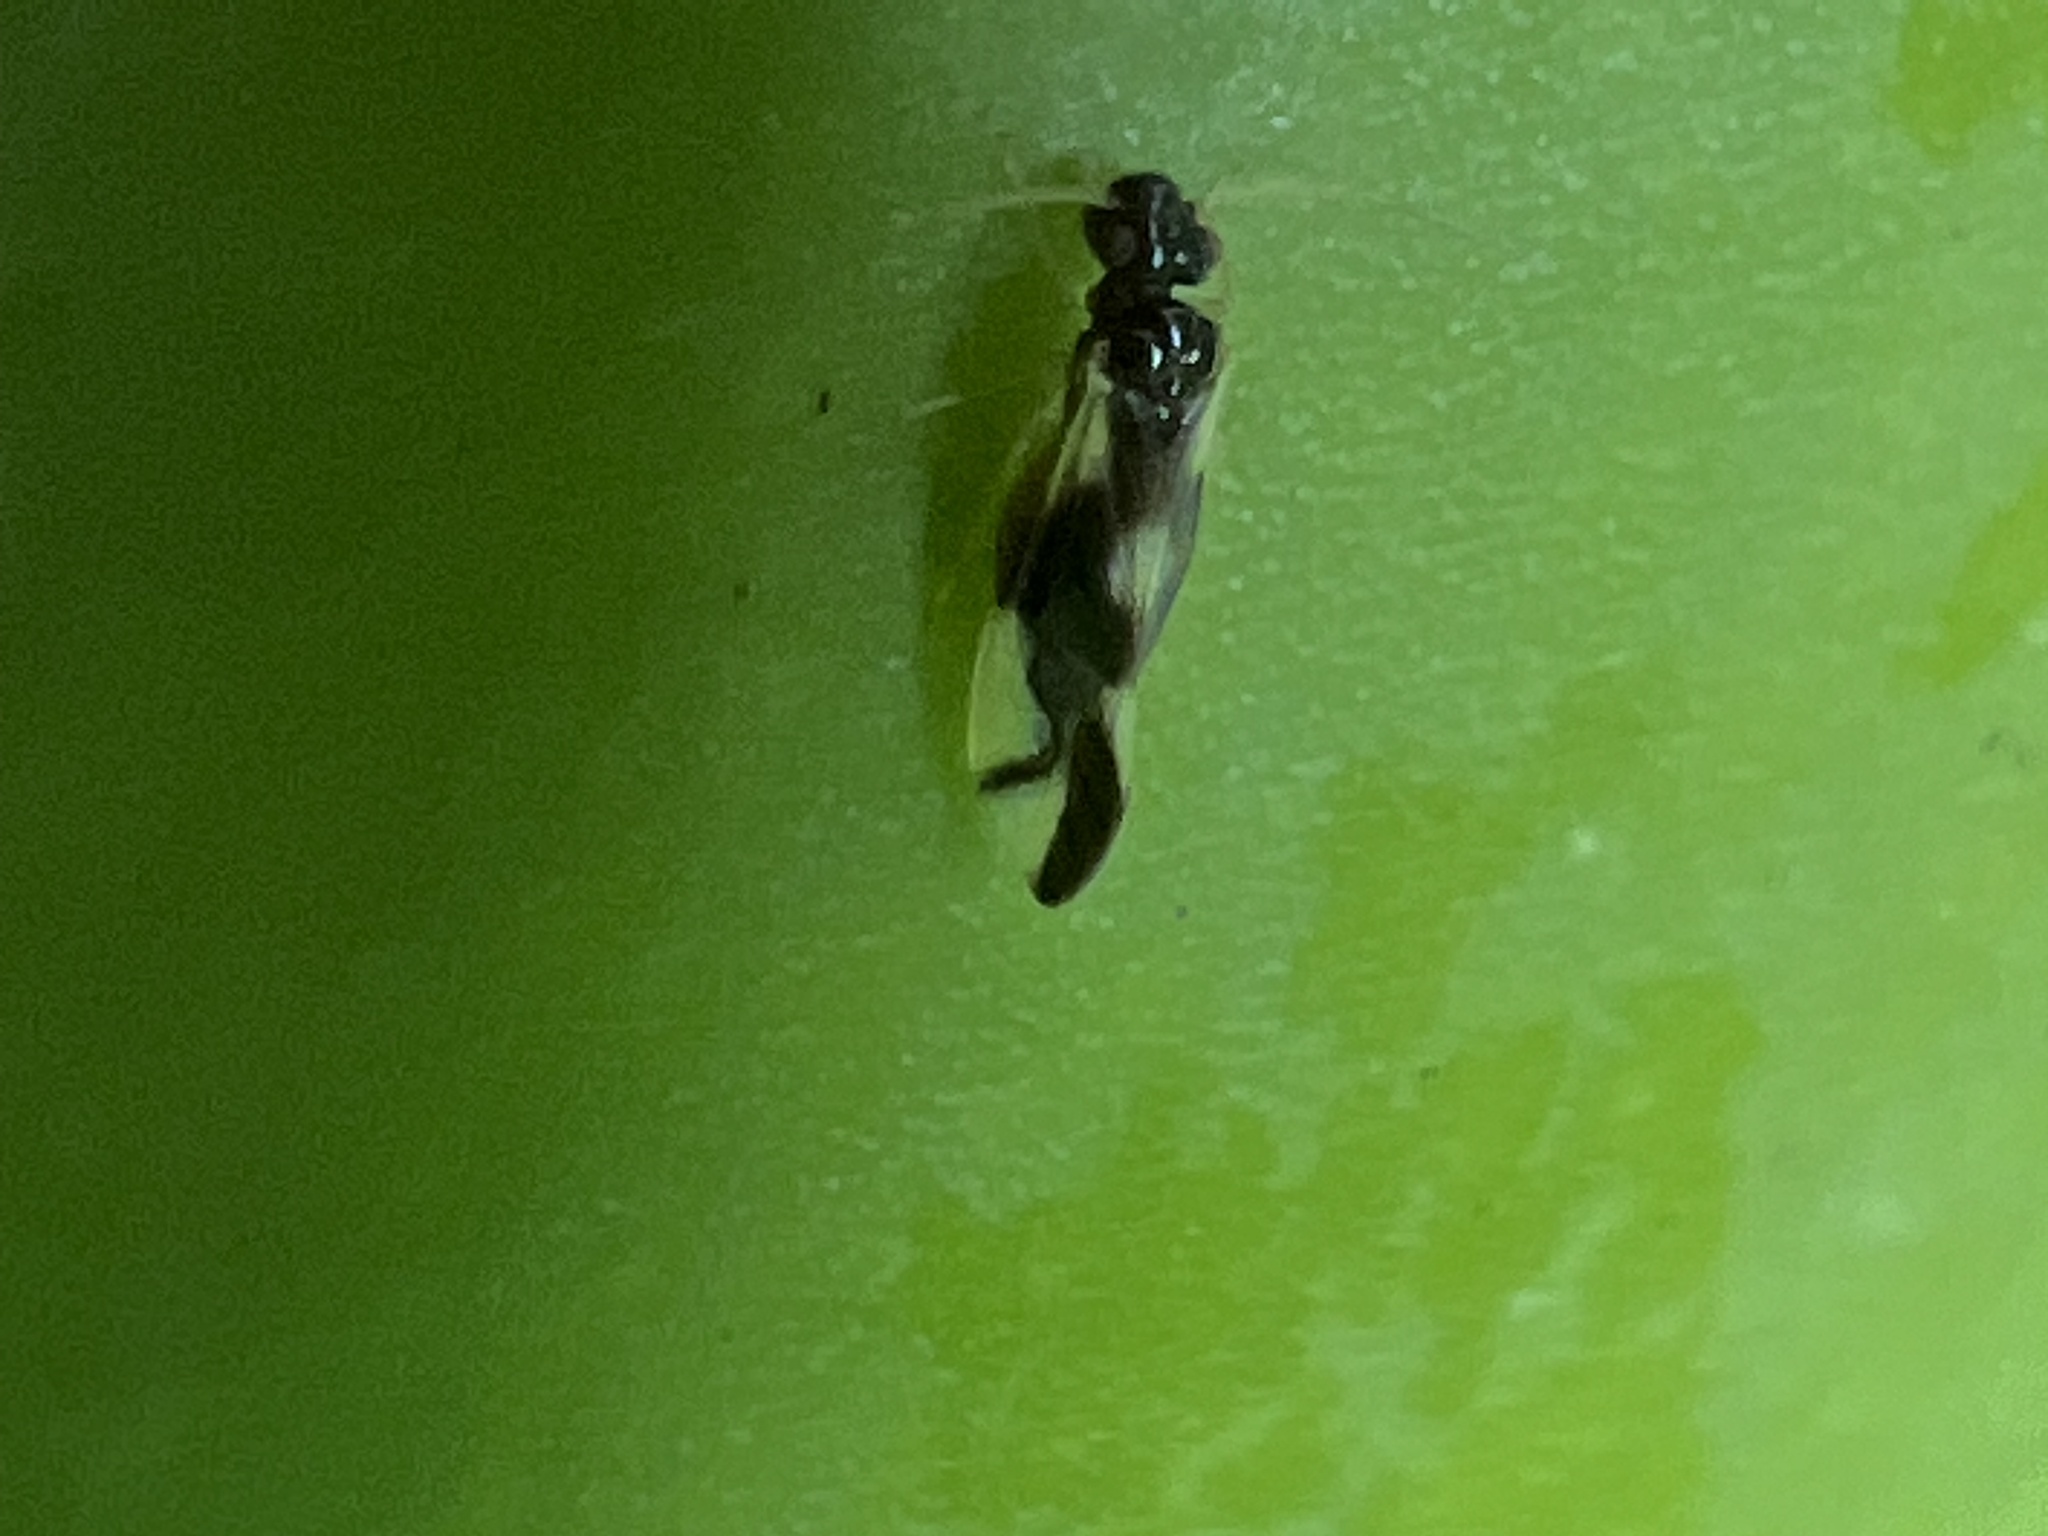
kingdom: Animalia
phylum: Arthropoda
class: Insecta
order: Psocodea
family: Caeciliusidae
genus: Valenzuela
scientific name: Valenzuela distinctus
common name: Lizard bark louse
